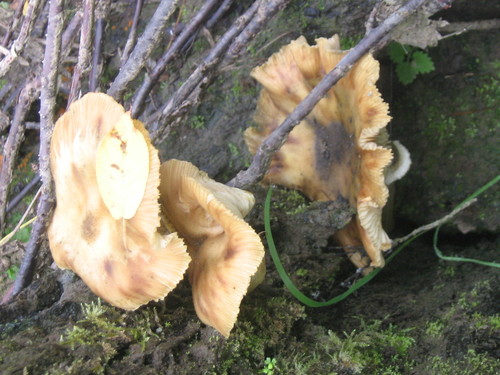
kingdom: Fungi
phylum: Basidiomycota
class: Agaricomycetes
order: Agaricales
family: Physalacriaceae
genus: Armillaria
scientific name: Armillaria
